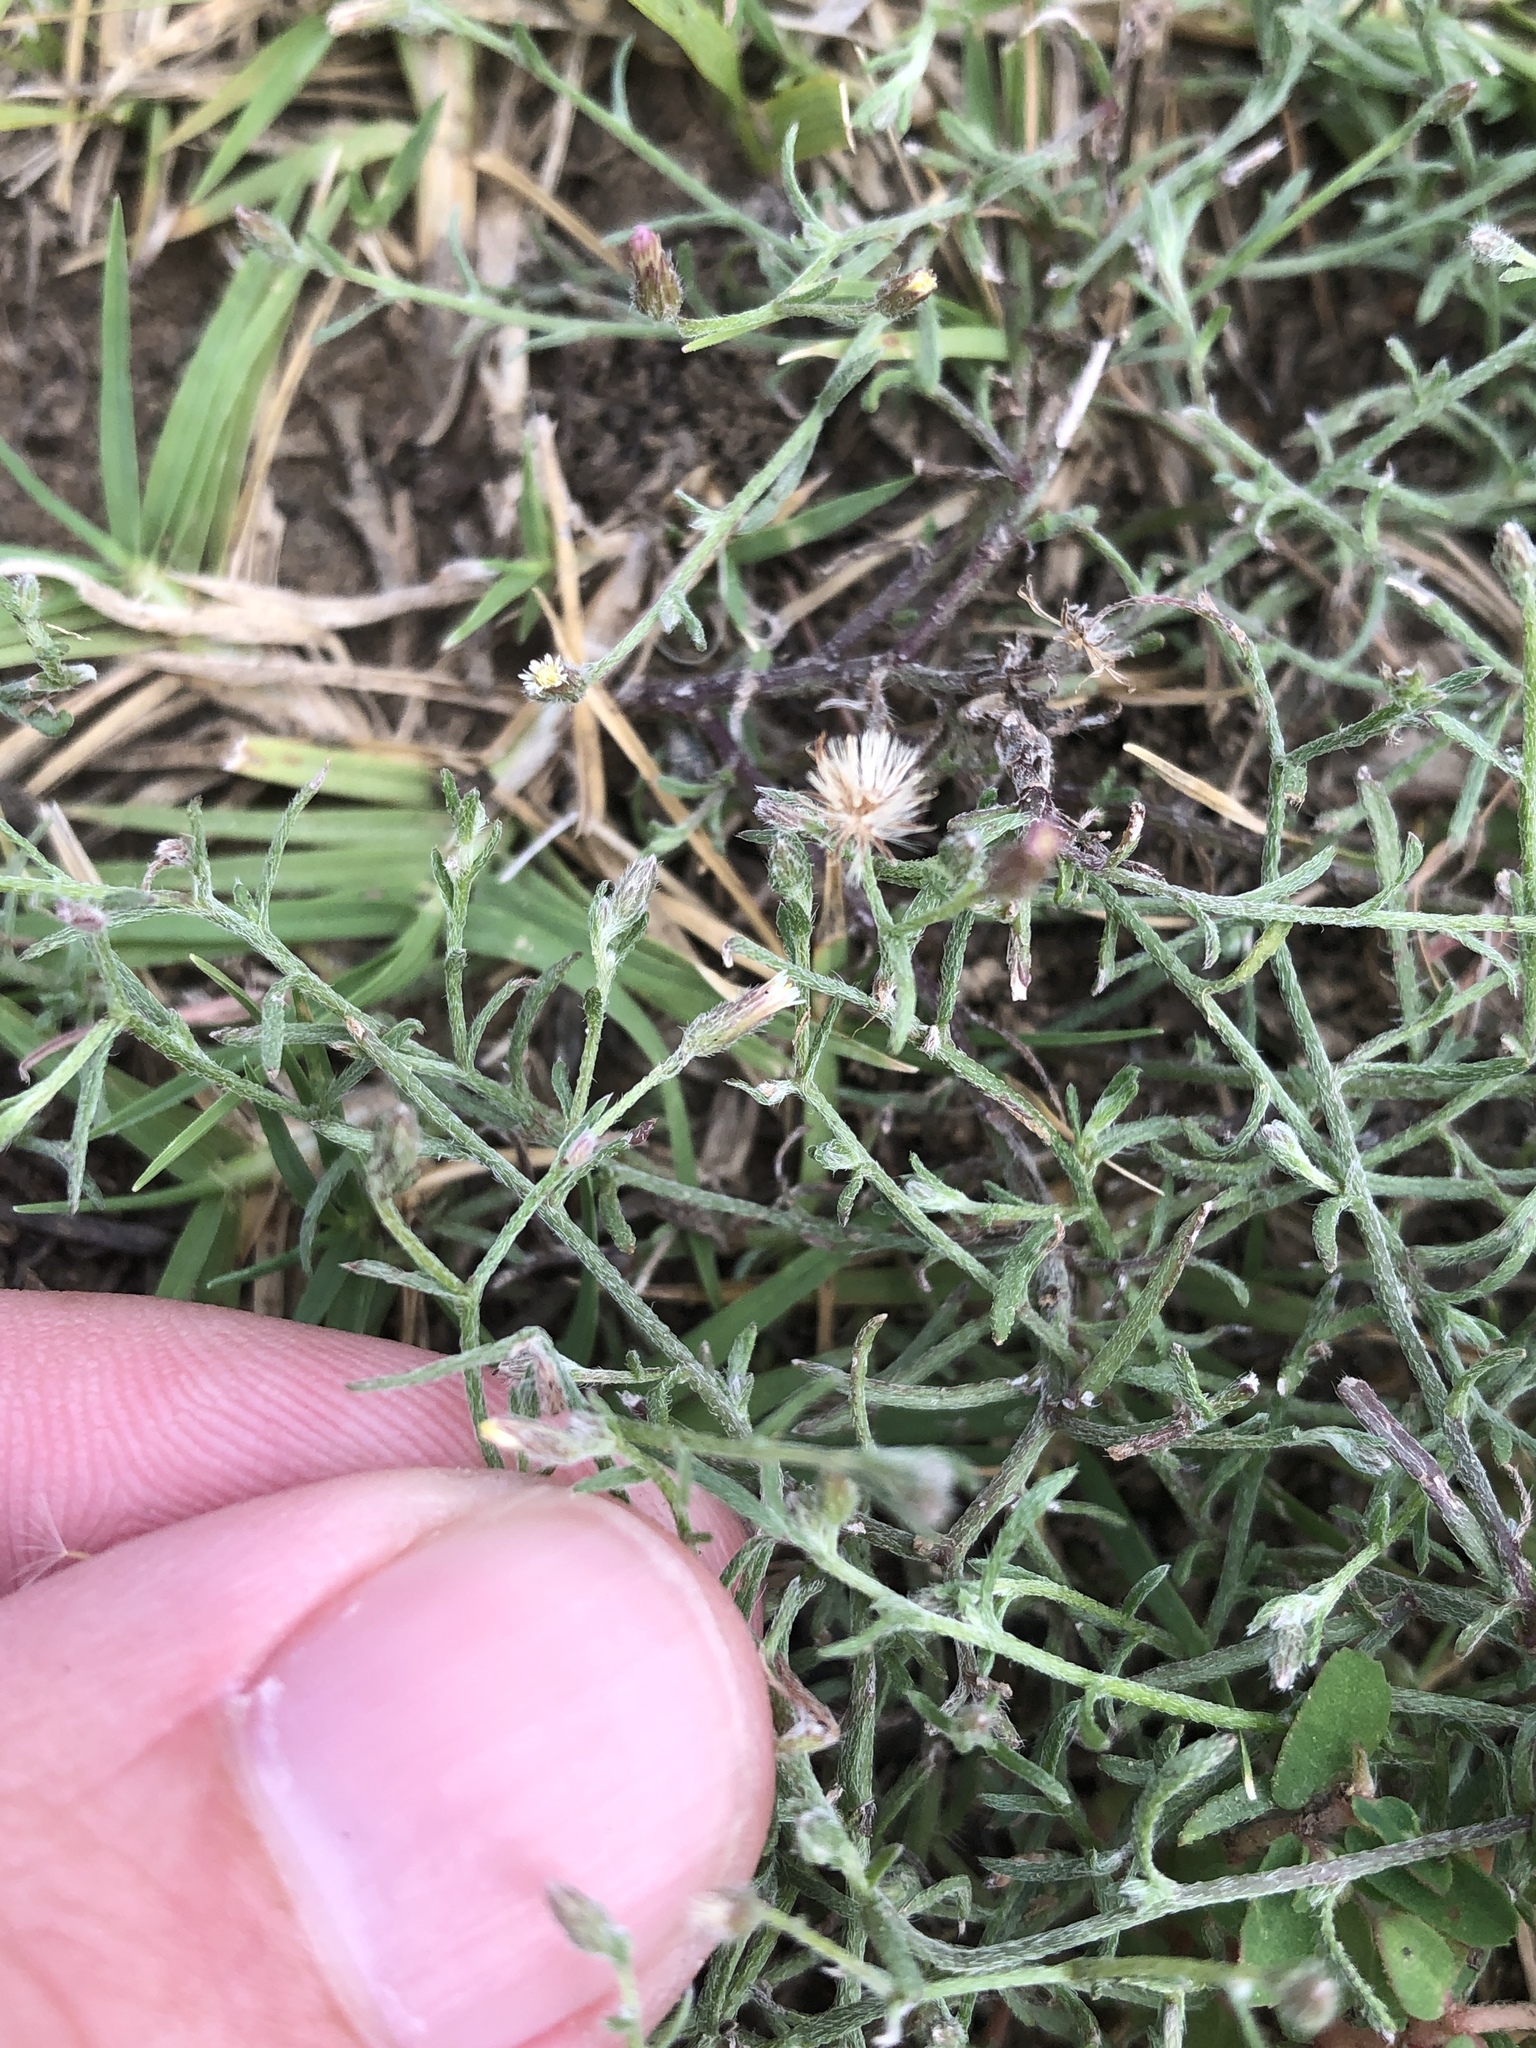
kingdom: Plantae
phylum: Tracheophyta
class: Magnoliopsida
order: Asterales
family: Asteraceae
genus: Erigeron
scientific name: Erigeron divaricatus
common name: Dwarf conyza
